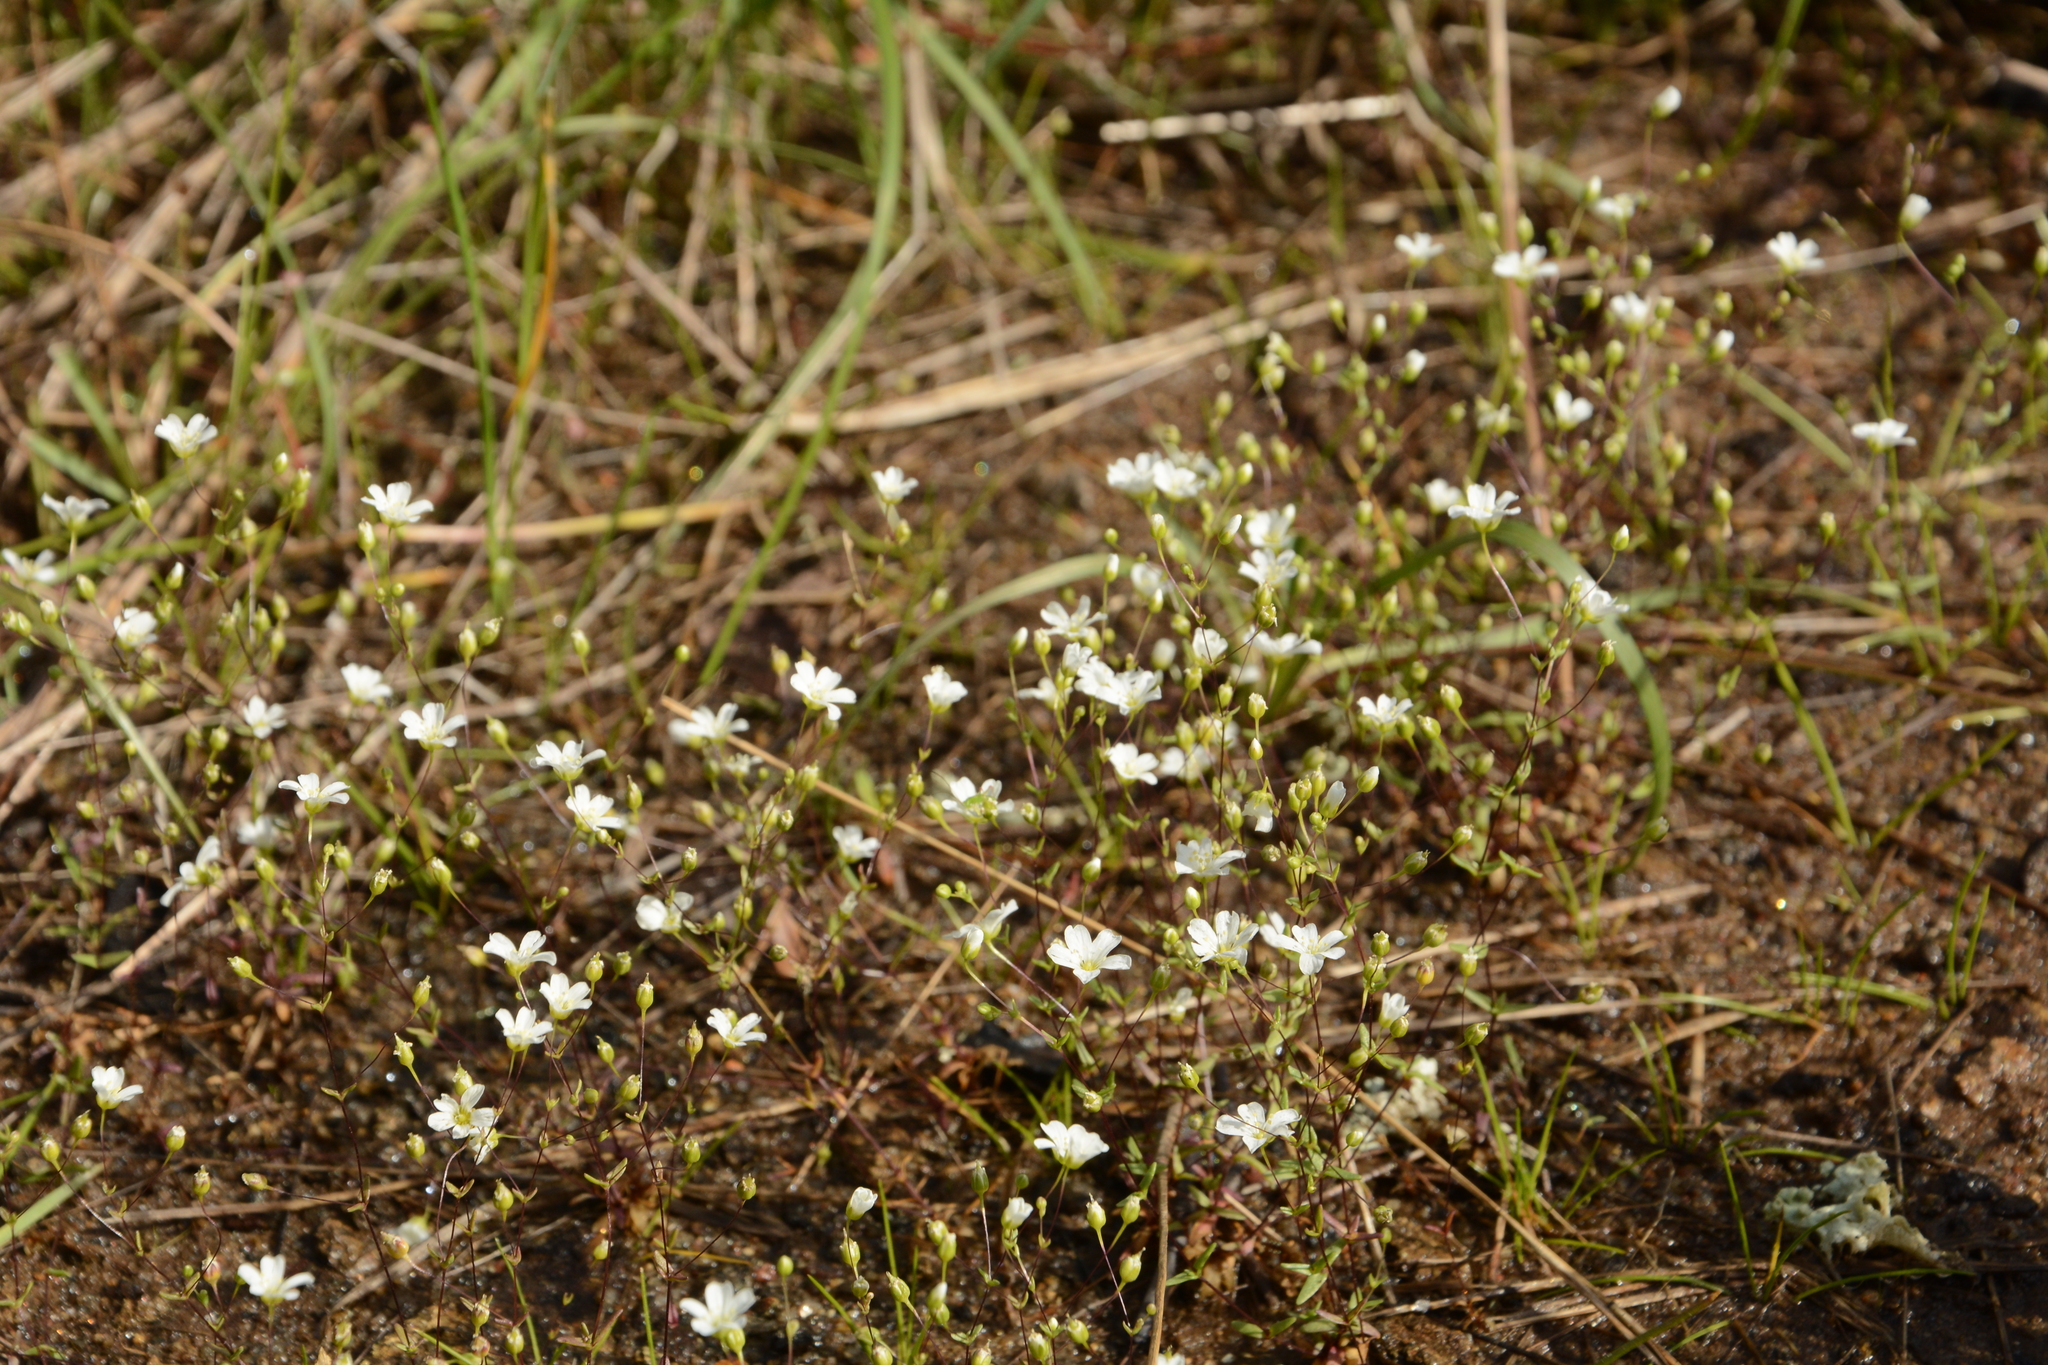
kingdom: Plantae
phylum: Tracheophyta
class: Magnoliopsida
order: Caryophyllales
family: Caryophyllaceae
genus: Geocarpon
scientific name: Geocarpon uniflorum
